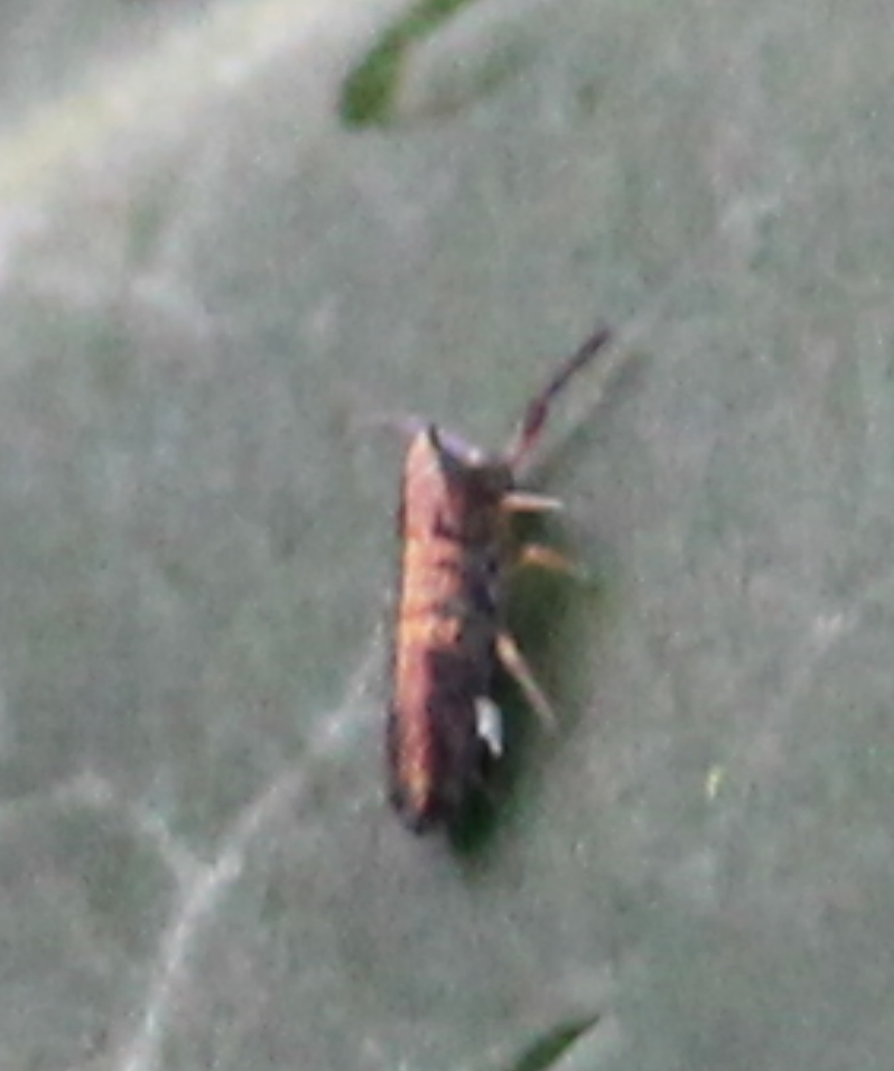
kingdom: Animalia
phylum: Arthropoda
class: Collembola
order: Entomobryomorpha
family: Entomobryidae
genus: Lepidocyrtus
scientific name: Lepidocyrtus paradoxus
